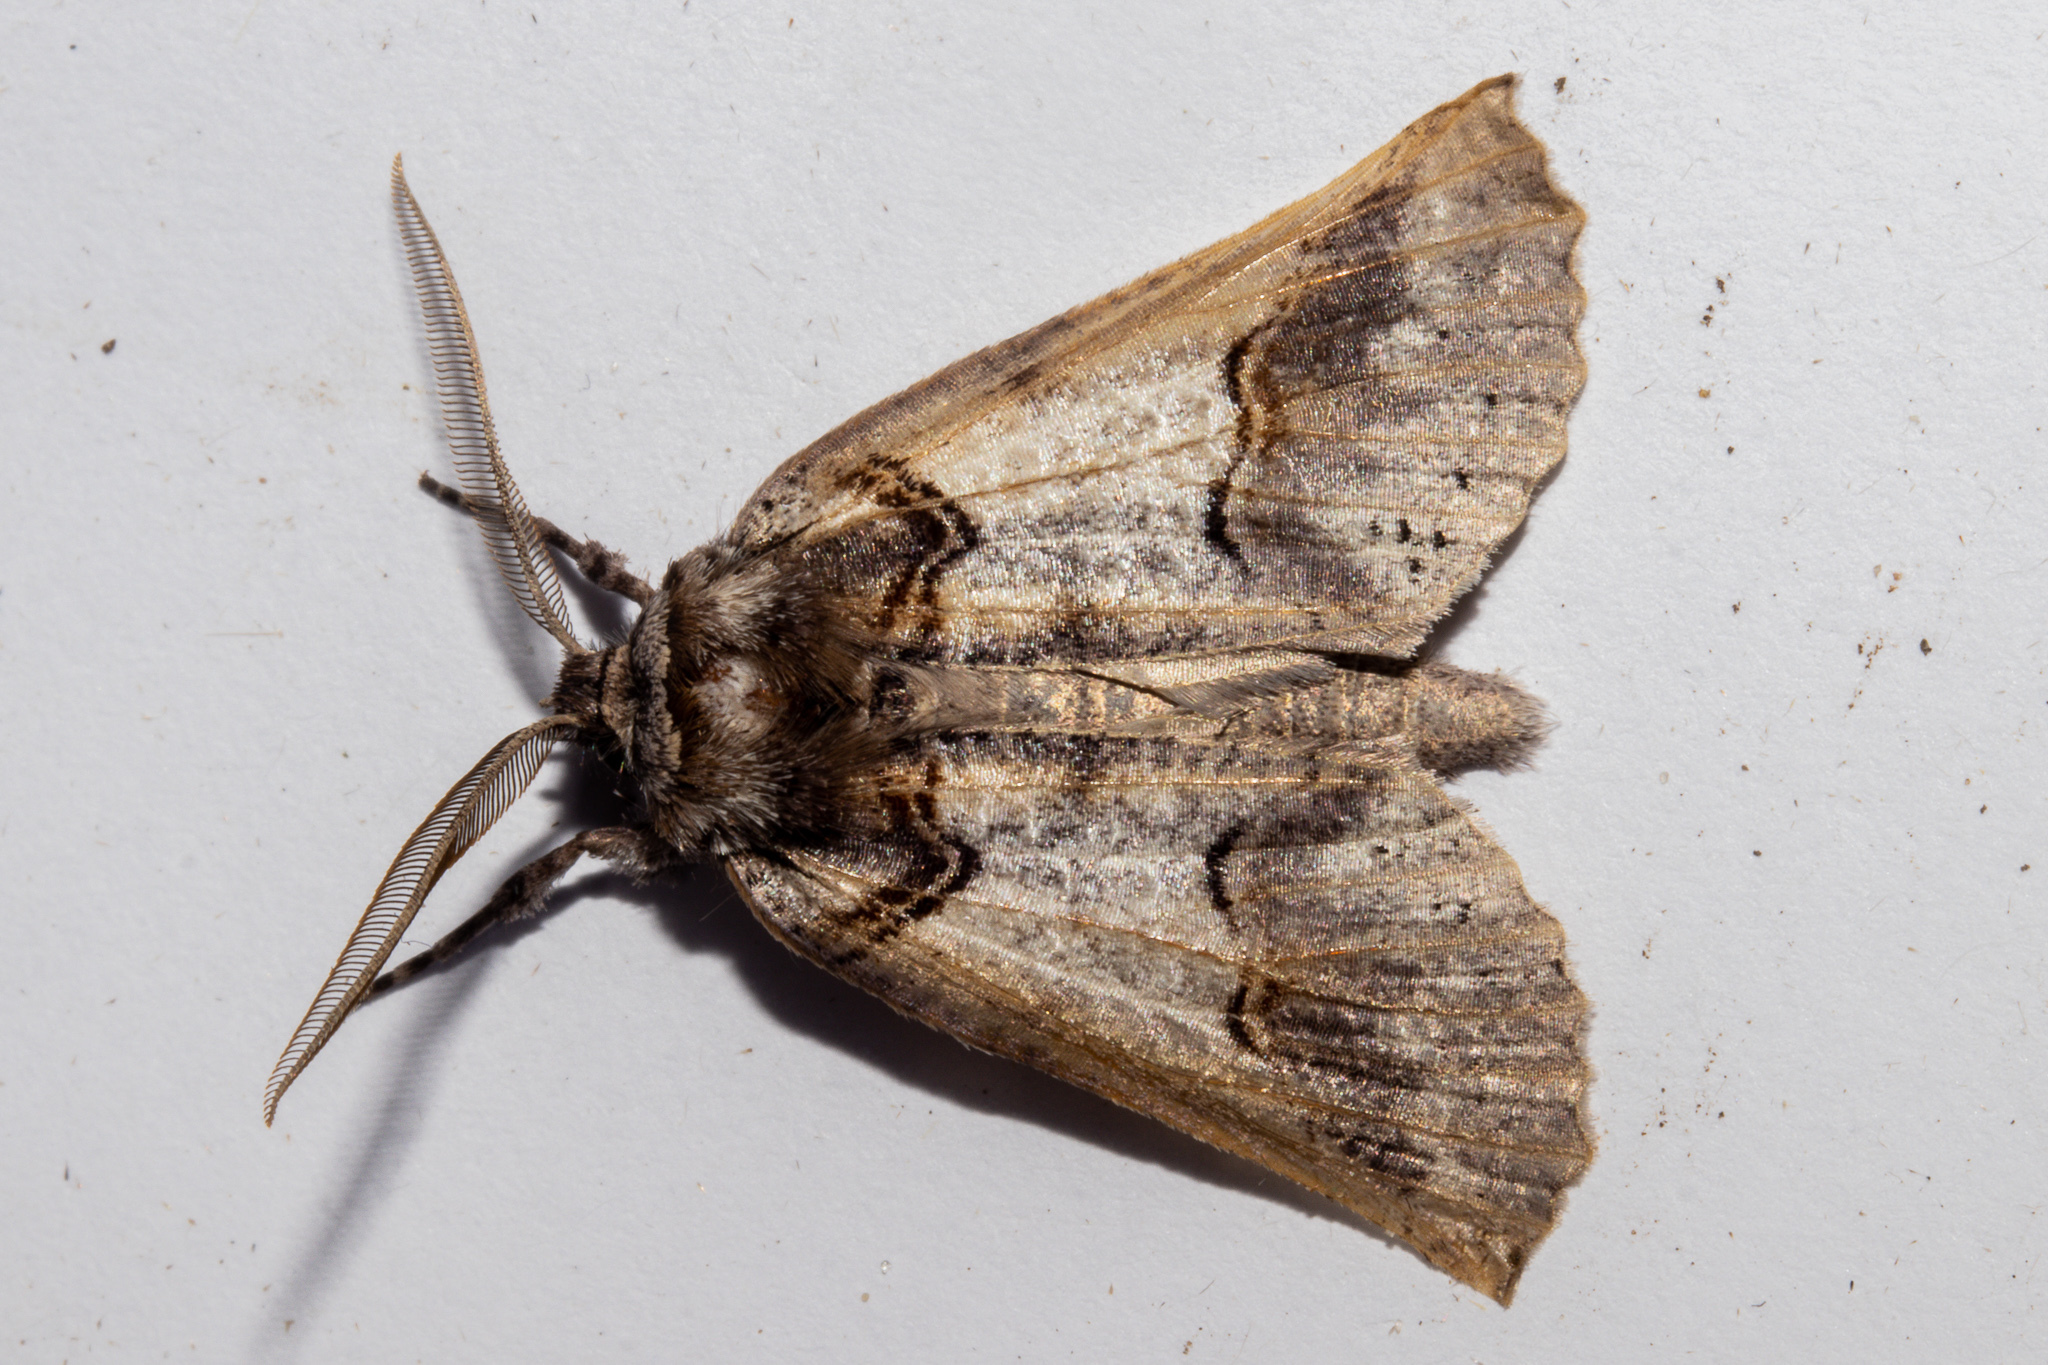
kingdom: Animalia
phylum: Arthropoda
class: Insecta
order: Lepidoptera
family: Geometridae
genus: Declana
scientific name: Declana
